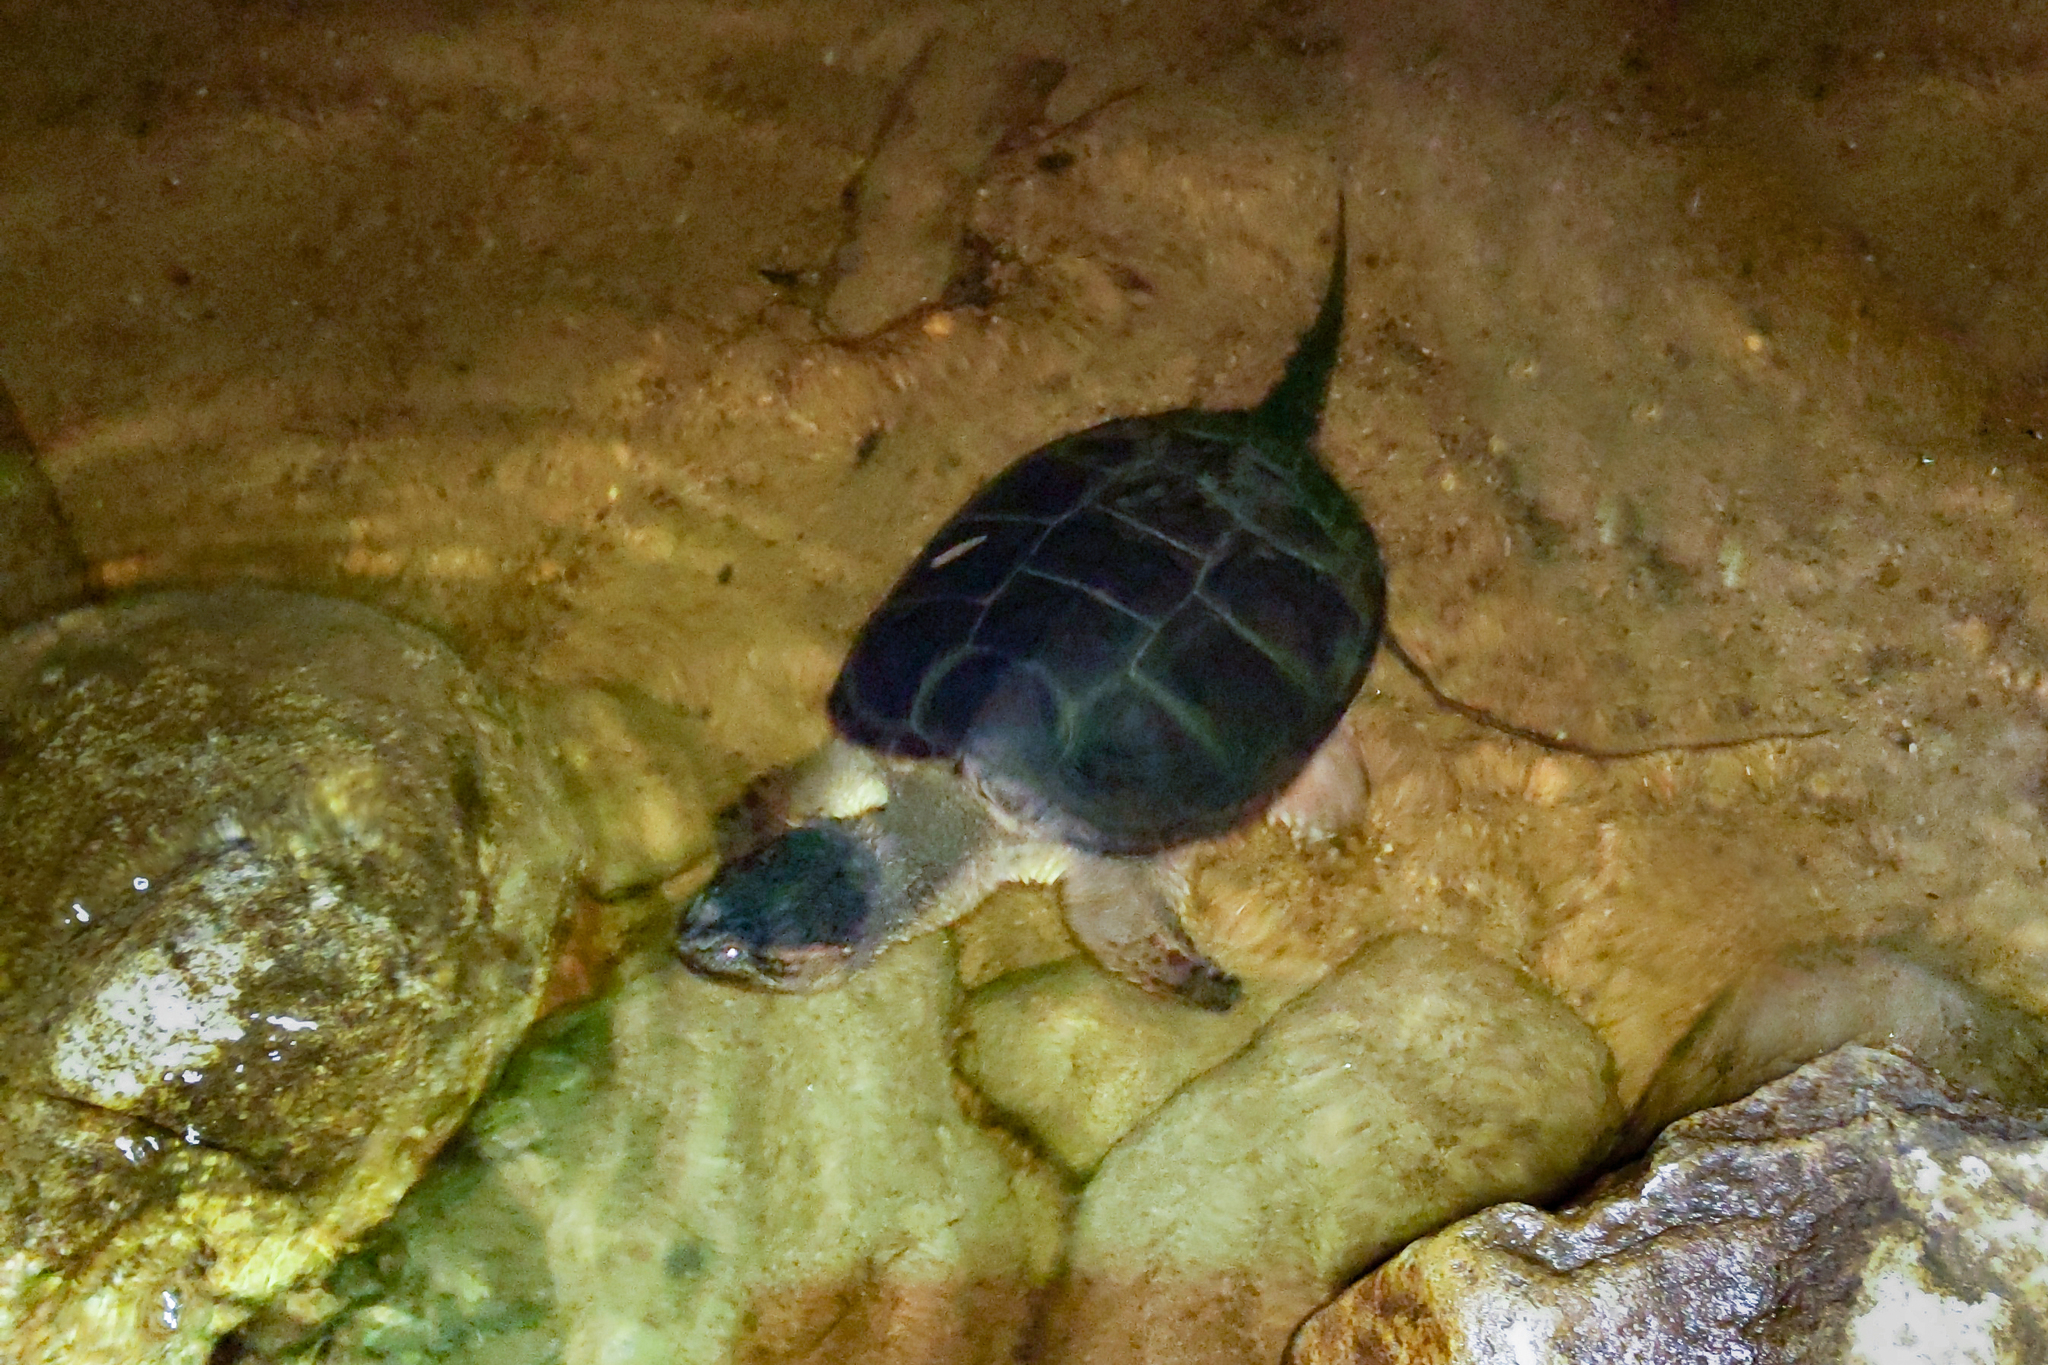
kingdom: Animalia
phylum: Chordata
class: Testudines
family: Chelydridae
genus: Chelydra
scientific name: Chelydra serpentina
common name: Common snapping turtle
